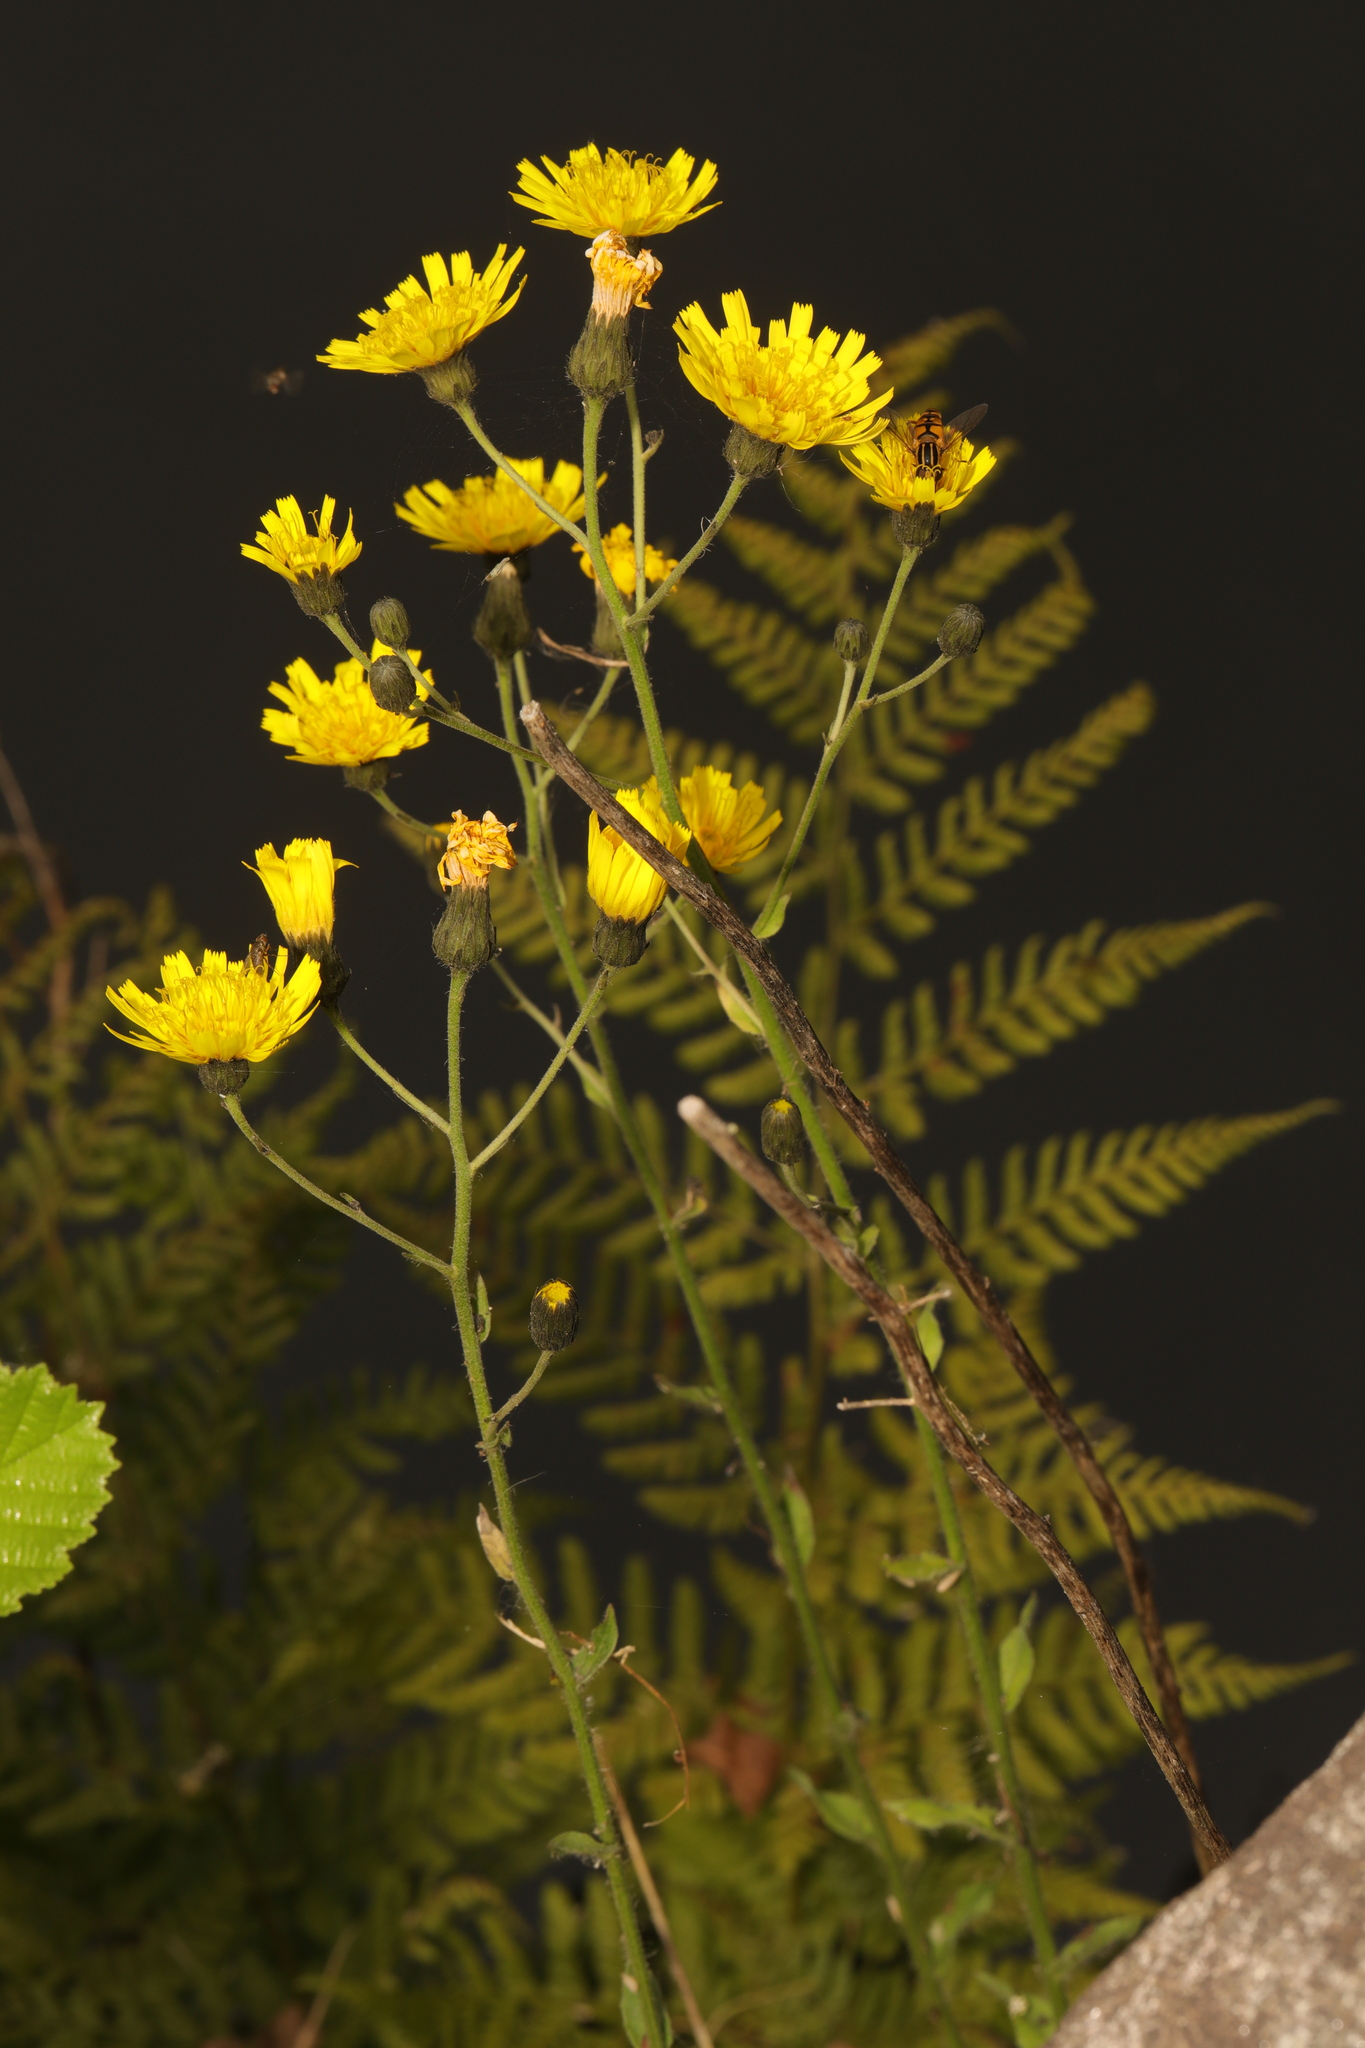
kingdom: Plantae
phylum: Tracheophyta
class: Magnoliopsida
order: Asterales
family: Asteraceae
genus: Hieracium
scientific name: Hieracium sabaudum
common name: New england hawkweed
